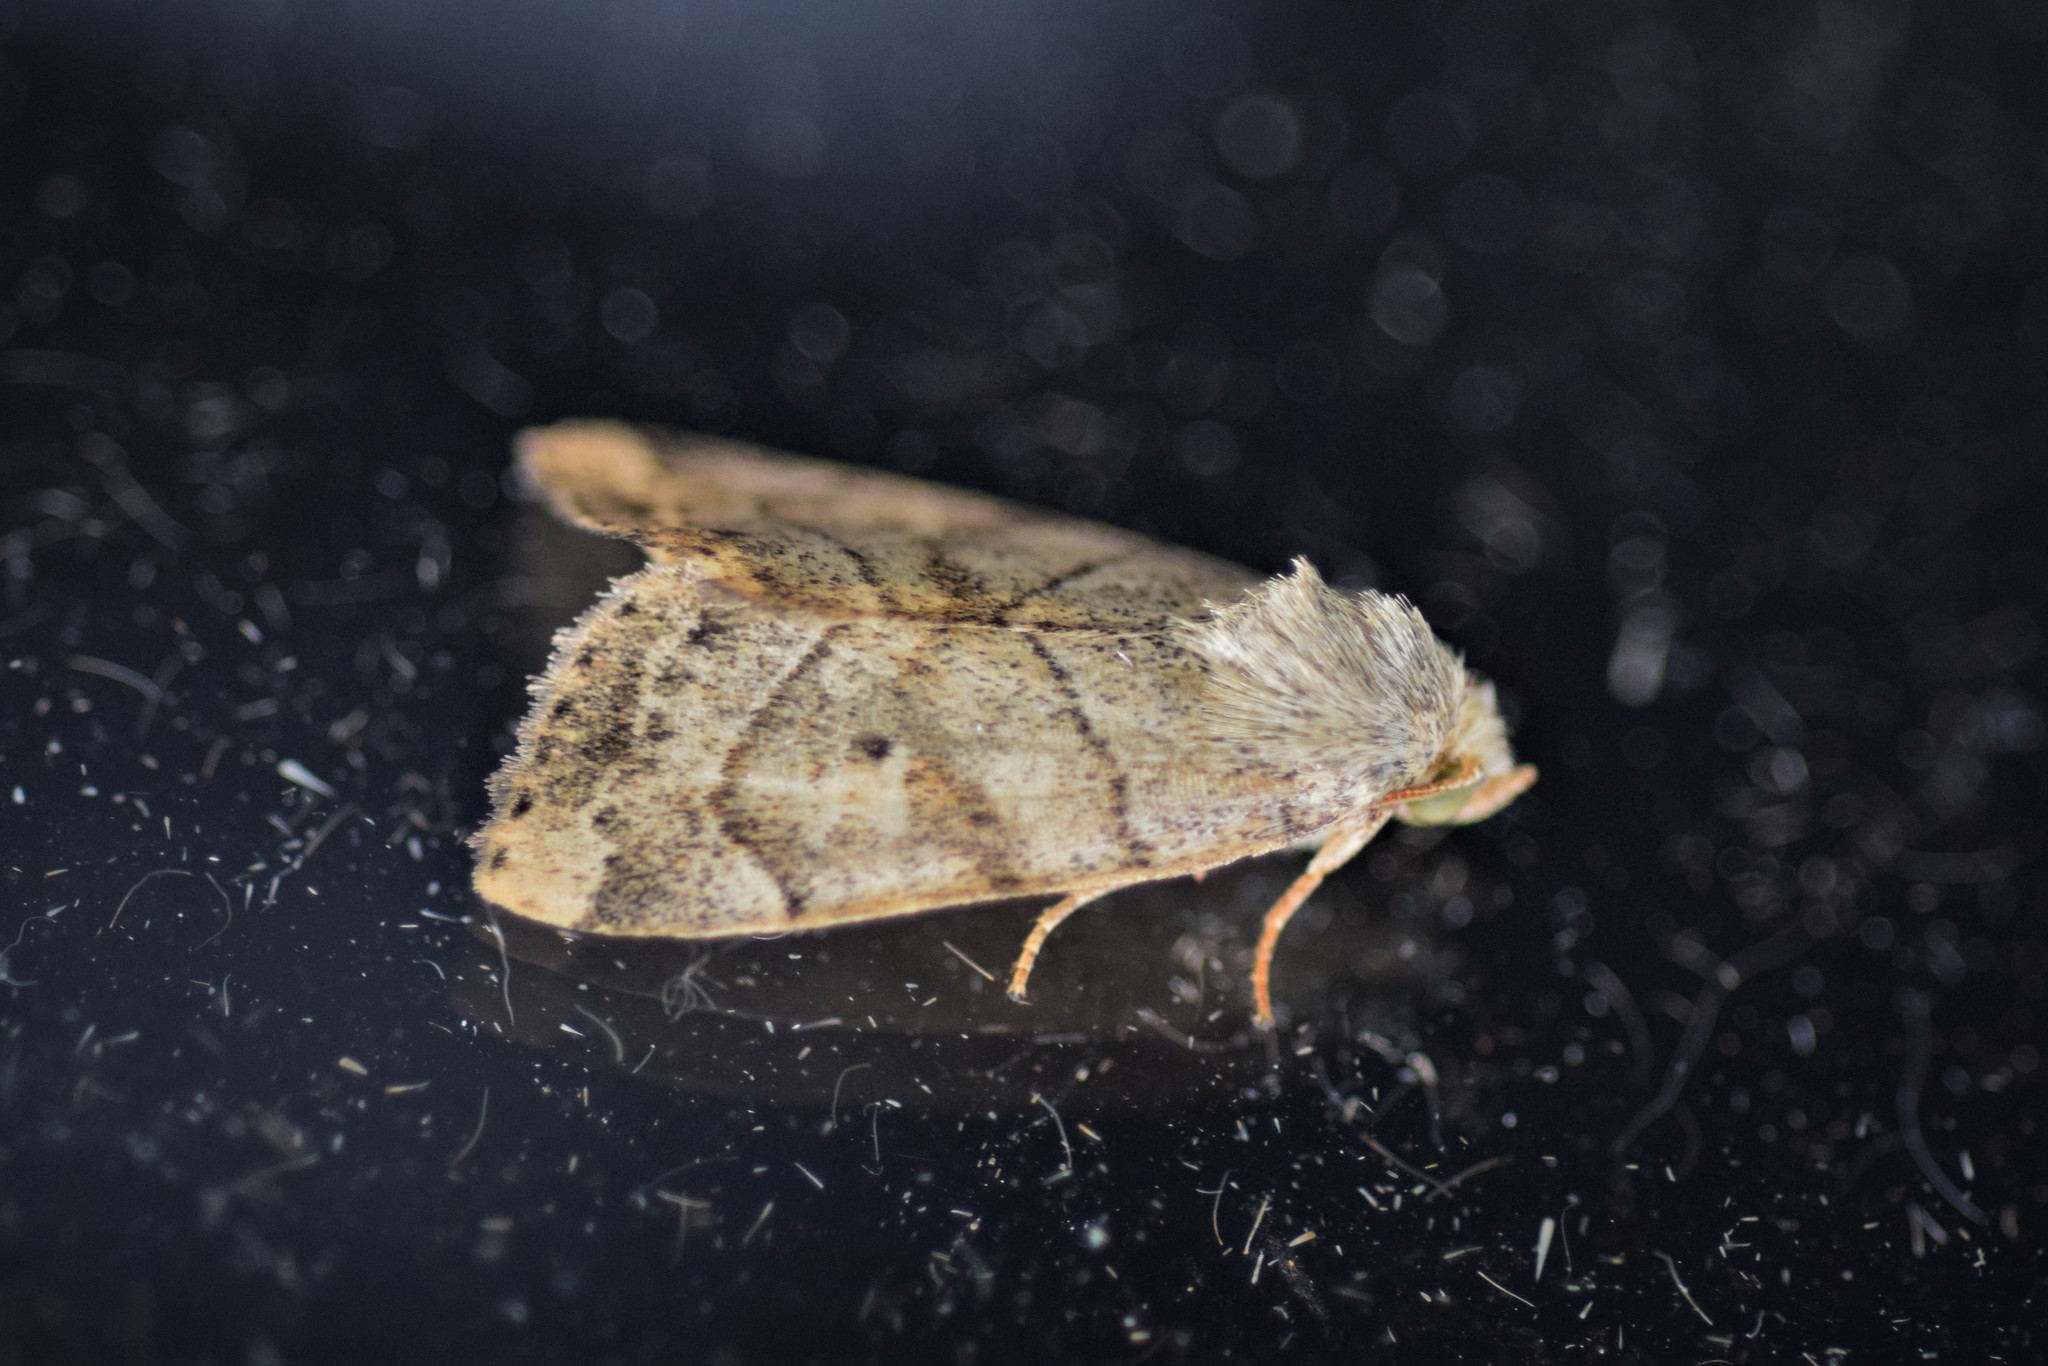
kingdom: Animalia
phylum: Arthropoda
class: Insecta
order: Lepidoptera
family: Noctuidae
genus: Cosmia
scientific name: Cosmia trapezina
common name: Dun-bar
